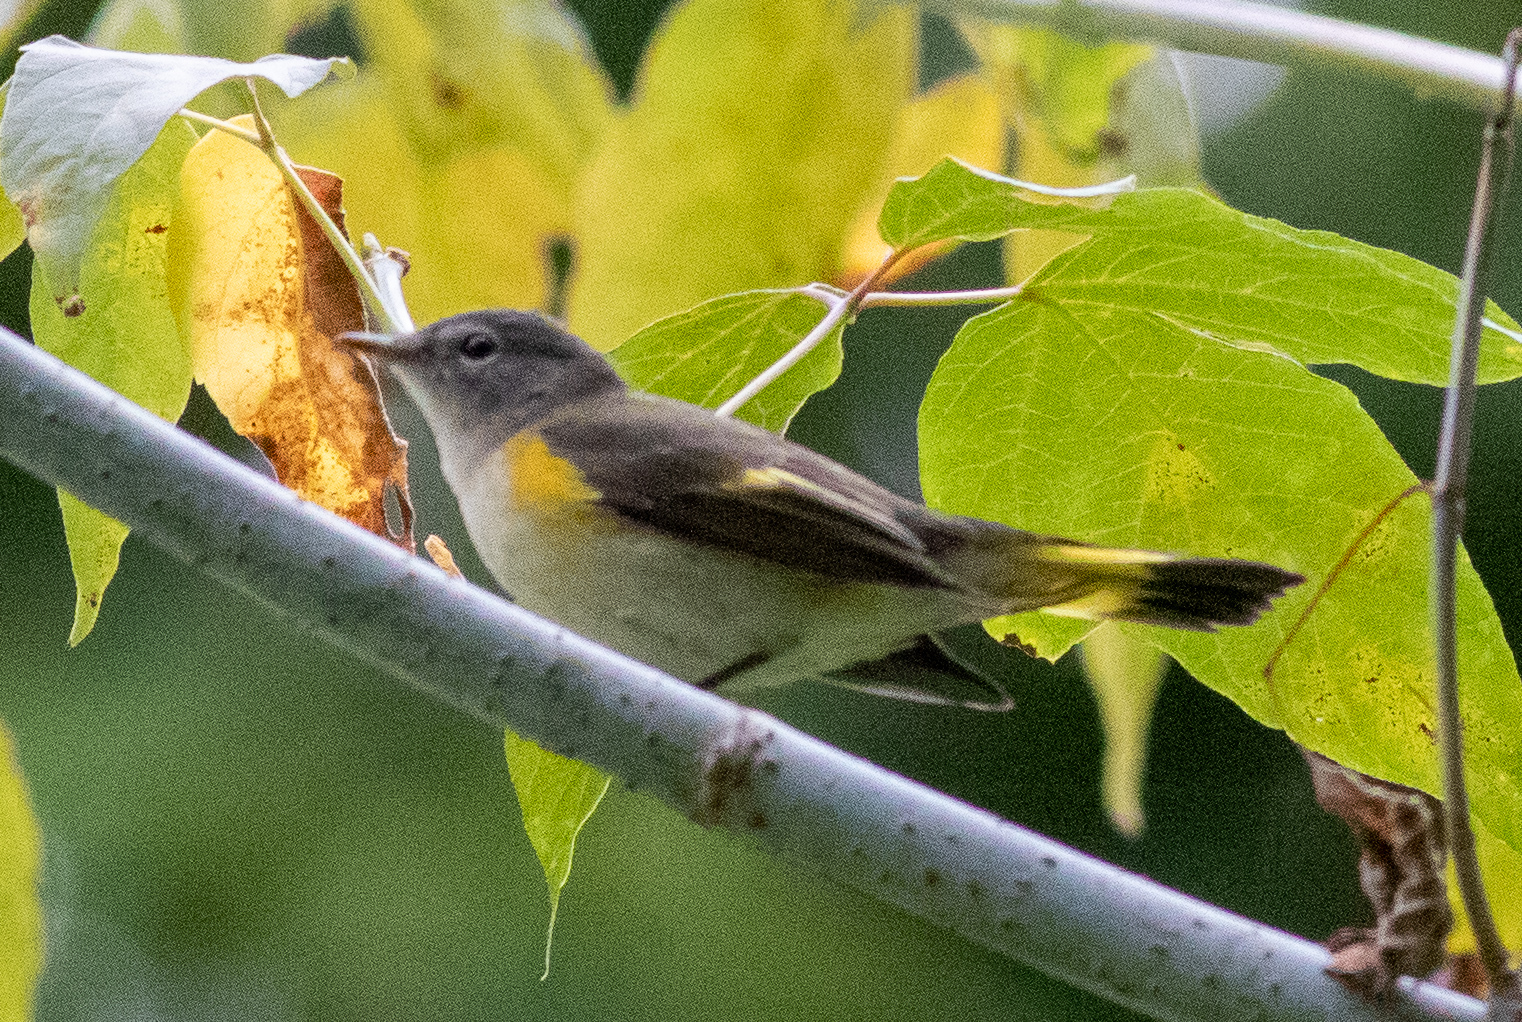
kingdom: Animalia
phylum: Chordata
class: Aves
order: Passeriformes
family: Parulidae
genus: Setophaga
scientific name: Setophaga ruticilla
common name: American redstart
